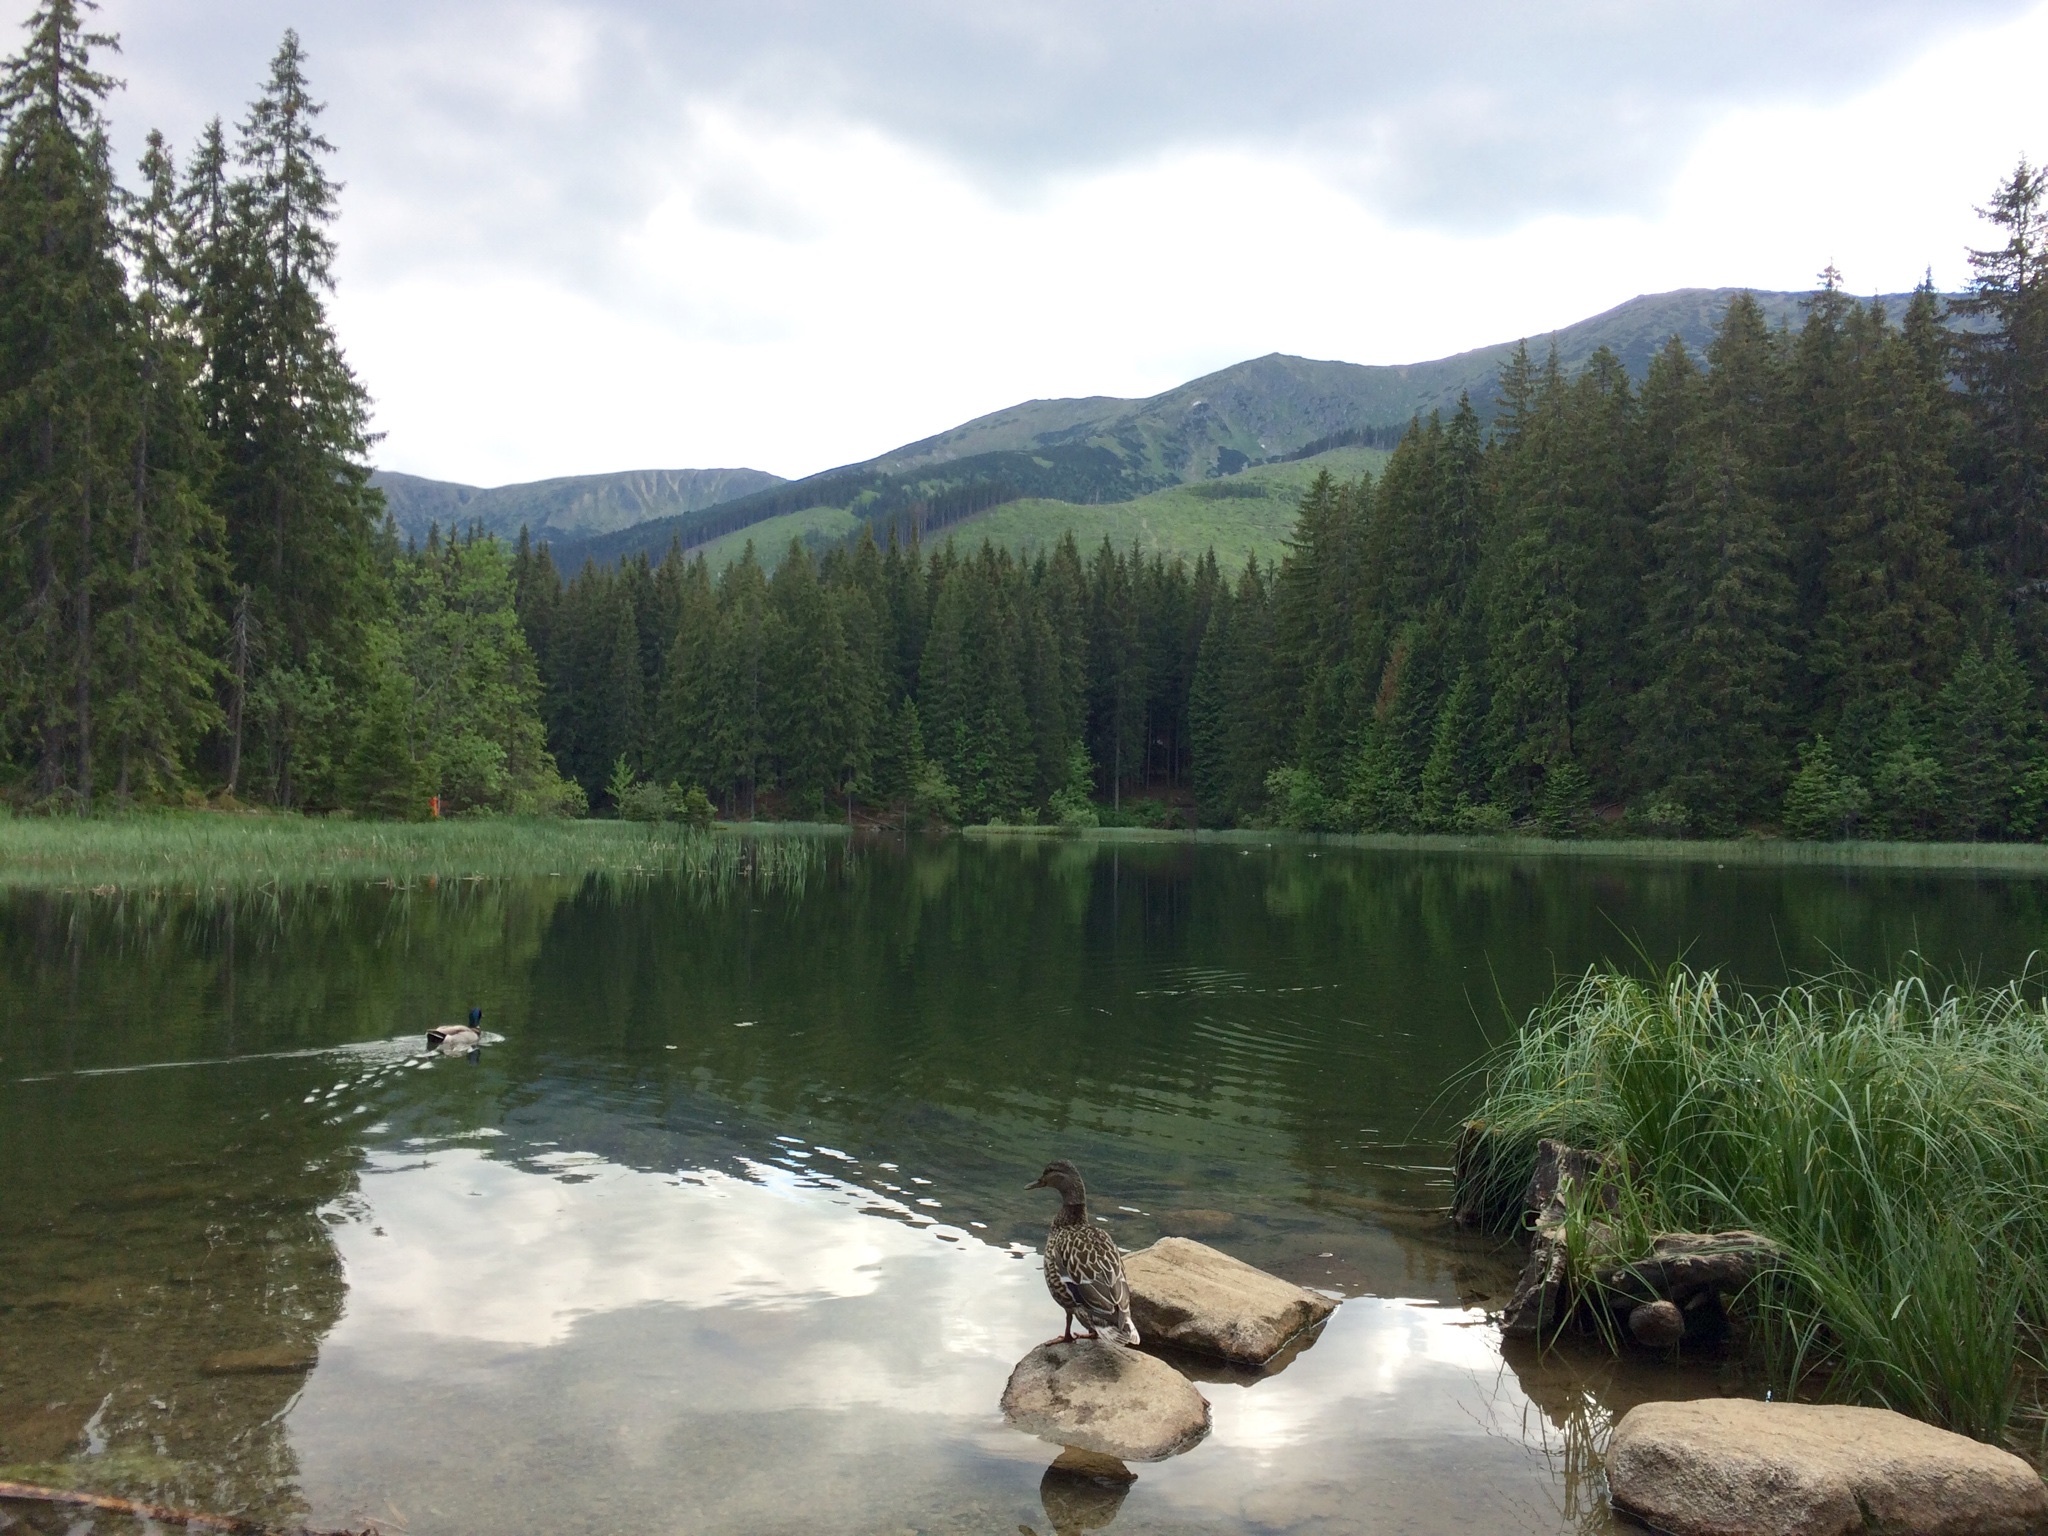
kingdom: Animalia
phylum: Chordata
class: Aves
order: Anseriformes
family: Anatidae
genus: Anas
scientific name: Anas platyrhynchos
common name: Mallard
